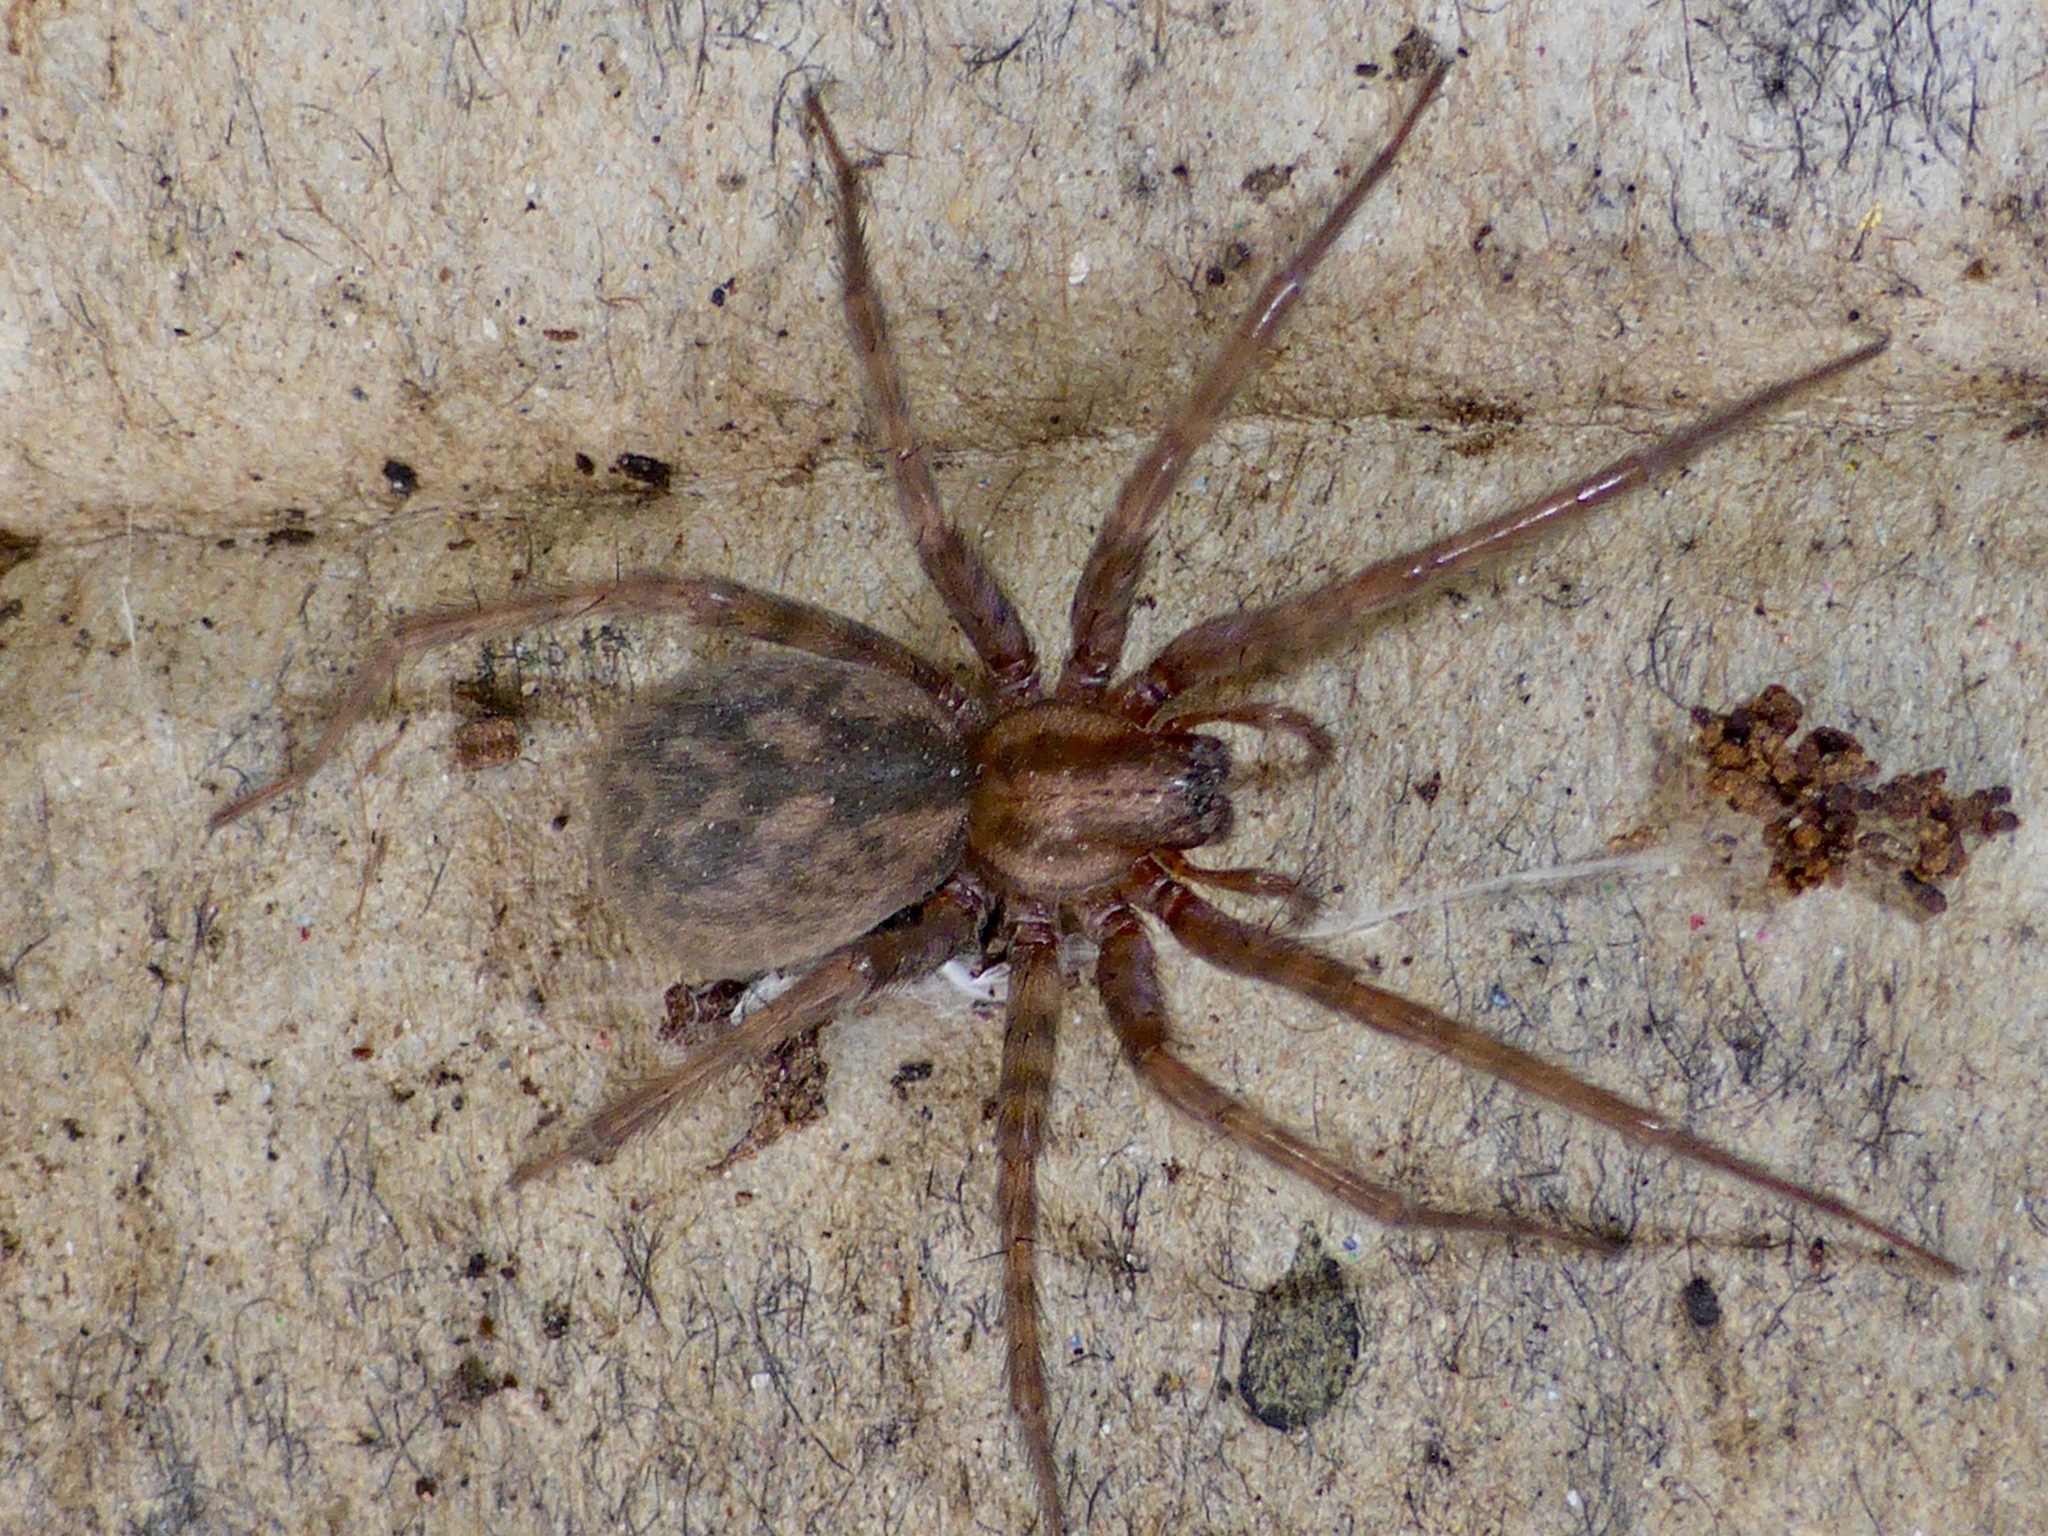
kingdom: Animalia
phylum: Arthropoda
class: Arachnida
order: Araneae
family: Agelenidae
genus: Tegenaria
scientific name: Tegenaria domestica
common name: Barn funnel weaver
